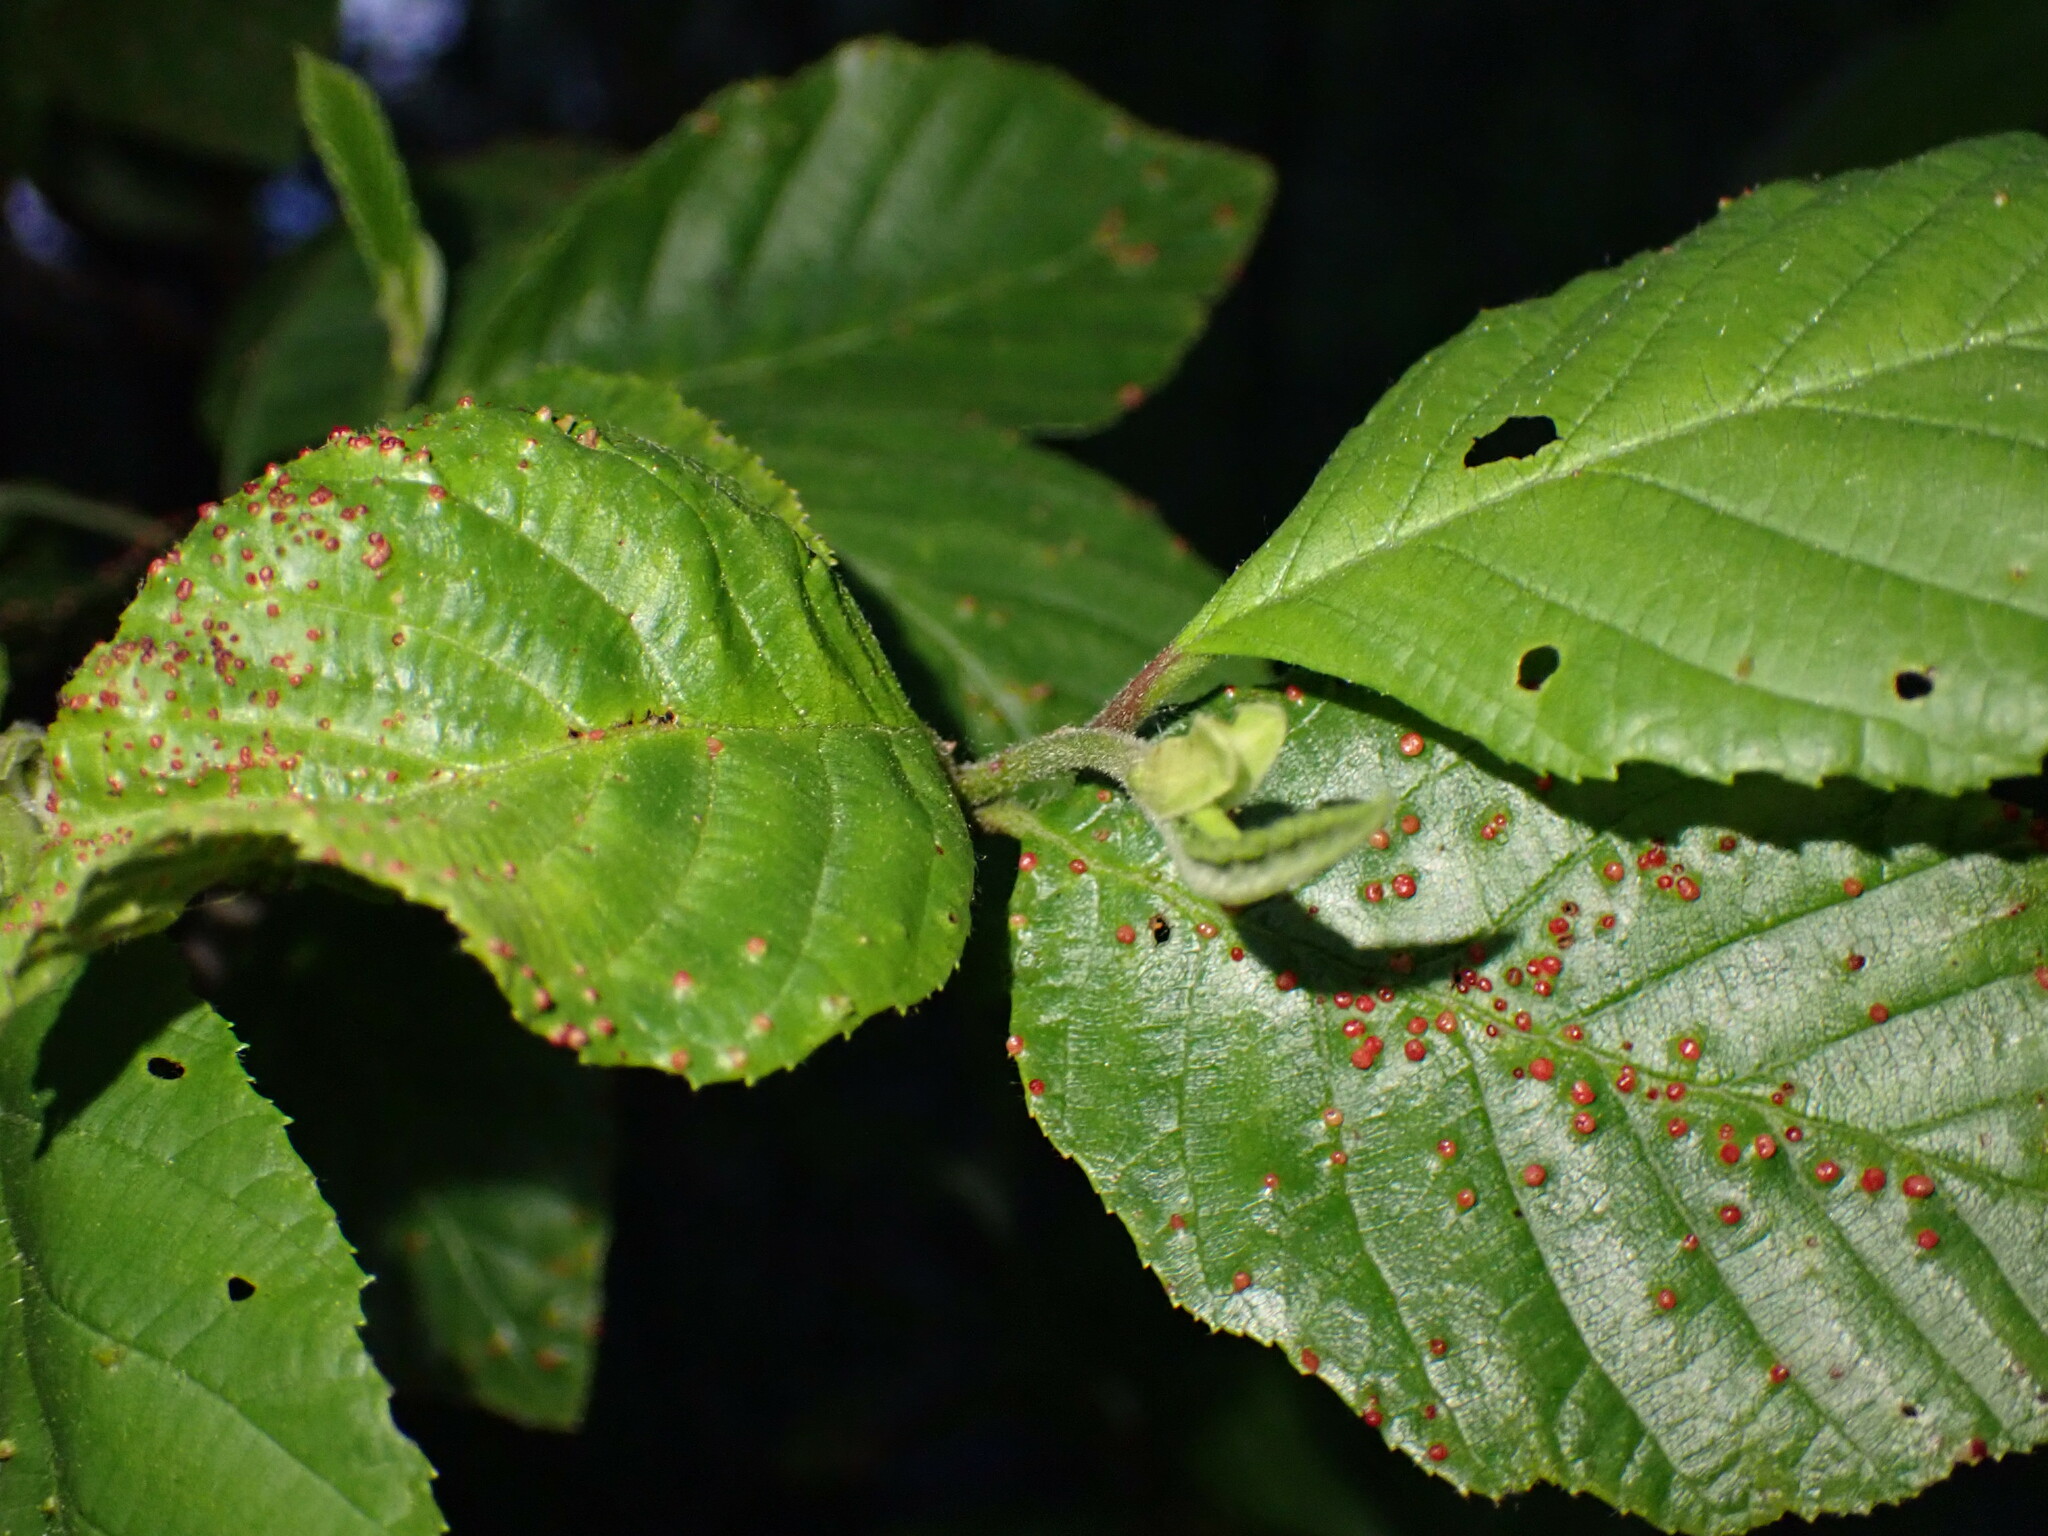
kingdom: Animalia
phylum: Arthropoda
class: Arachnida
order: Trombidiformes
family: Eriophyidae
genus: Eriophyes
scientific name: Eriophyes laevis
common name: Alder leaf gall mite
